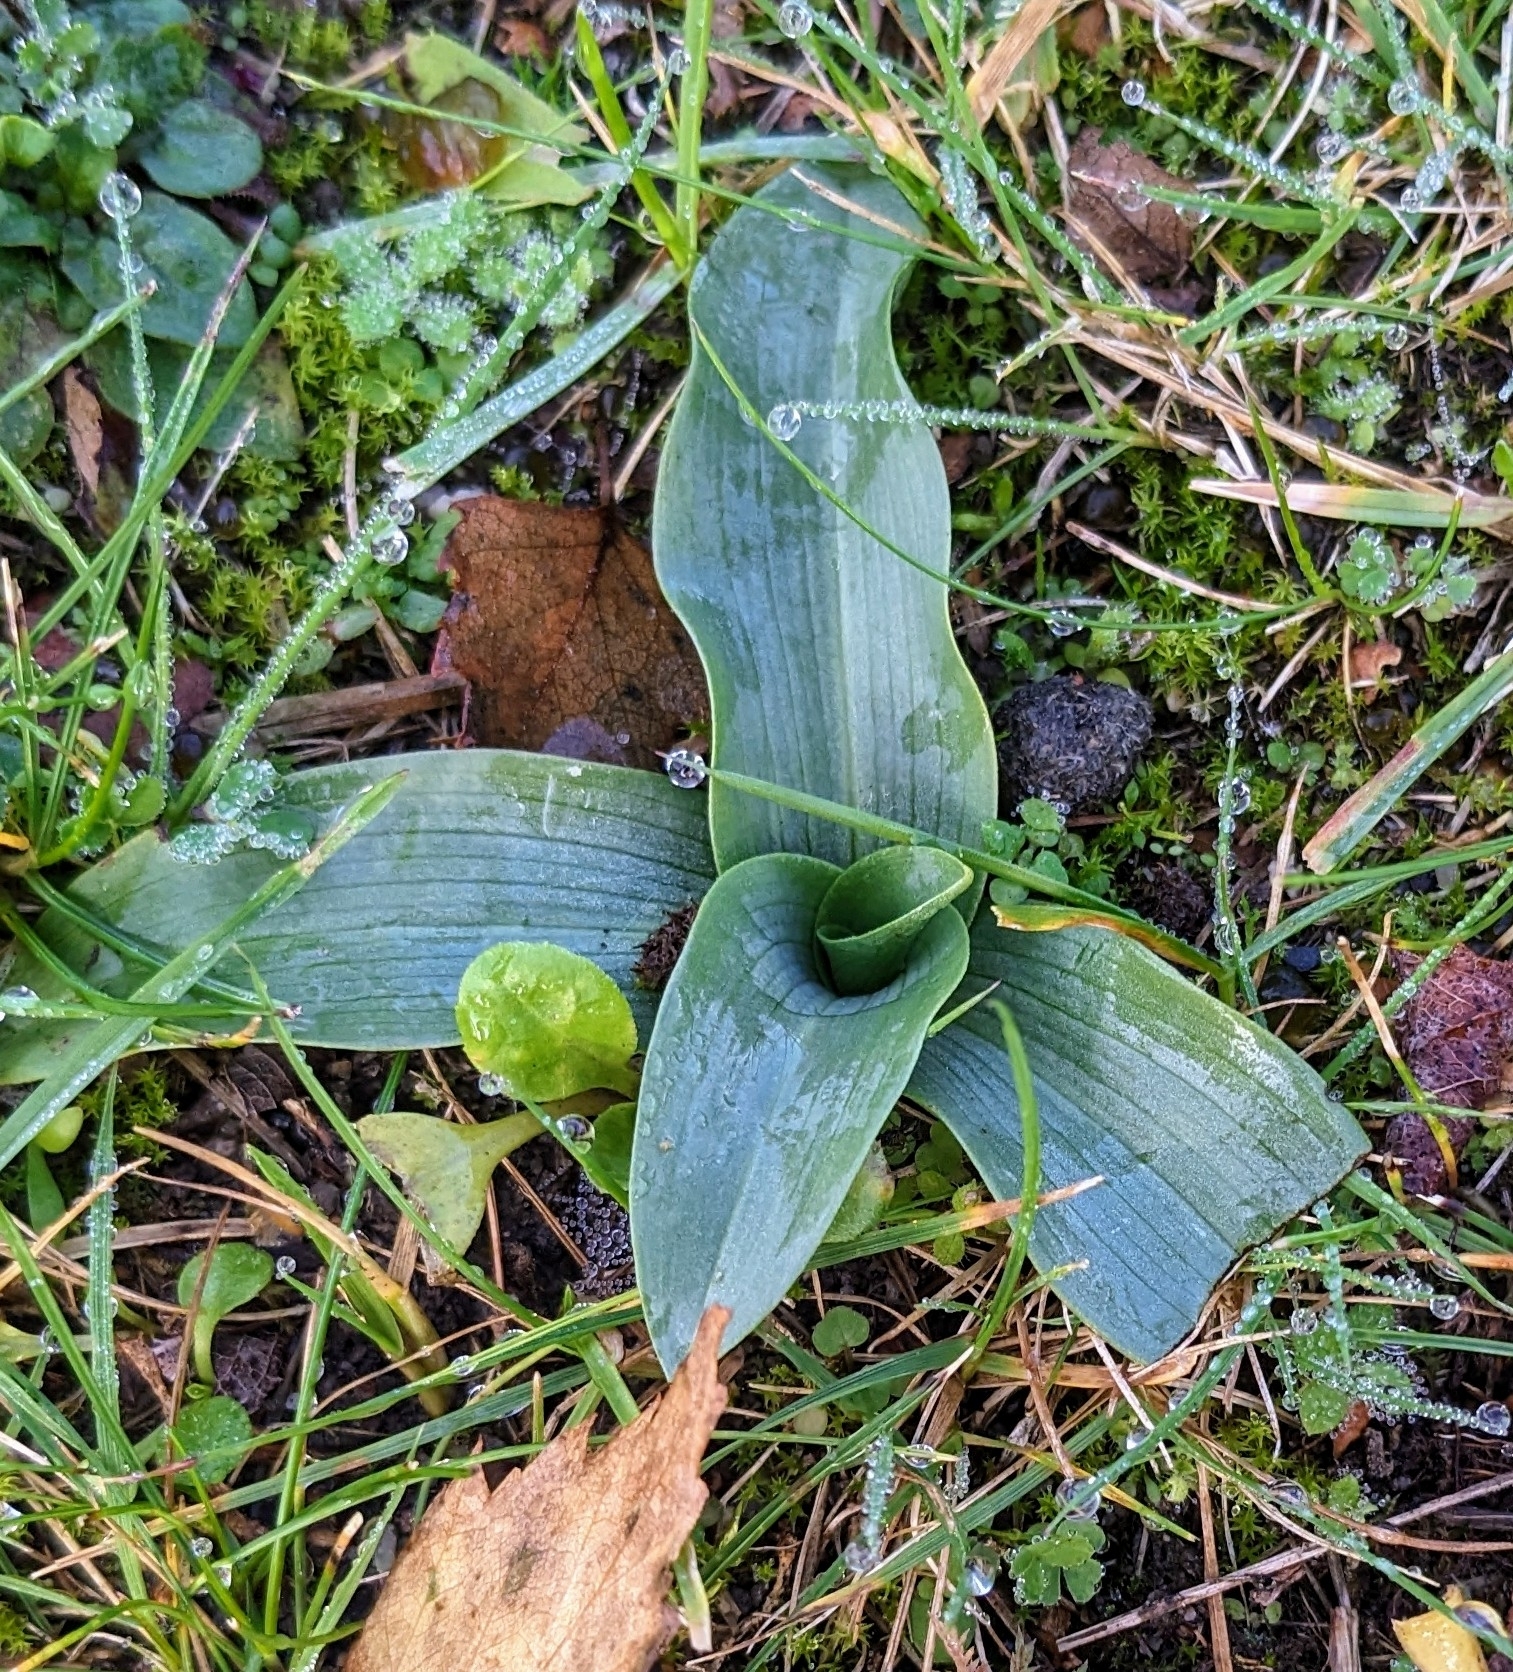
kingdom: Plantae
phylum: Tracheophyta
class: Liliopsida
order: Asparagales
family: Orchidaceae
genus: Ophrys
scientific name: Ophrys apifera
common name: Bee orchid
